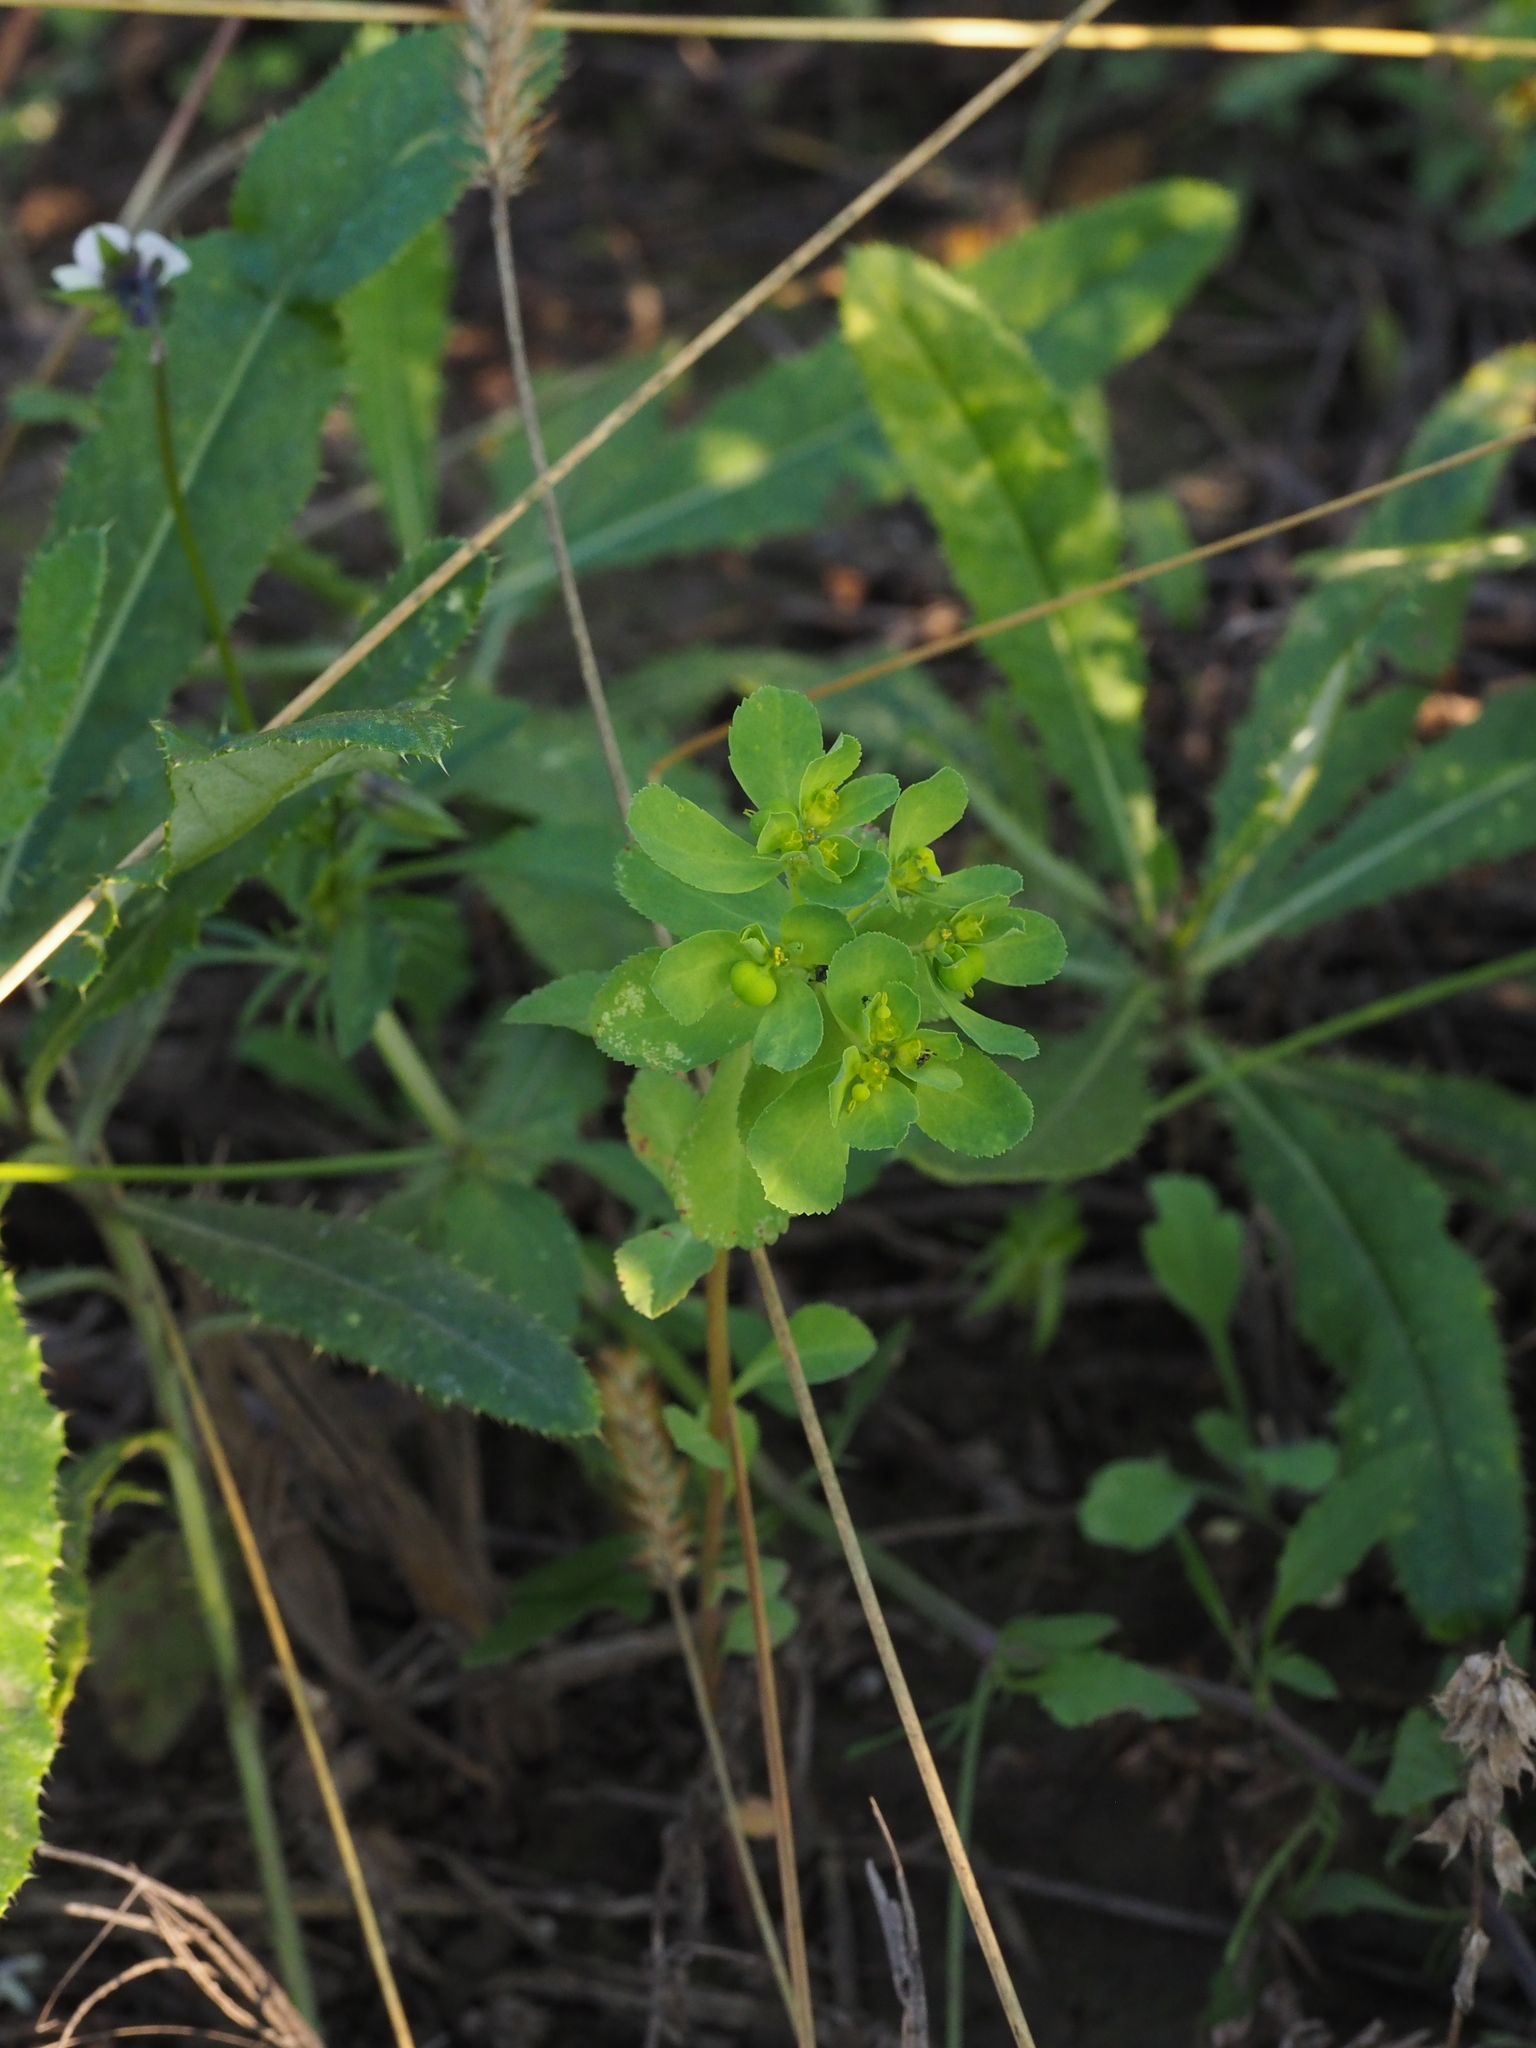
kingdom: Plantae
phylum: Tracheophyta
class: Magnoliopsida
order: Malpighiales
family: Euphorbiaceae
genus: Euphorbia
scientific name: Euphorbia helioscopia
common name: Sun spurge
